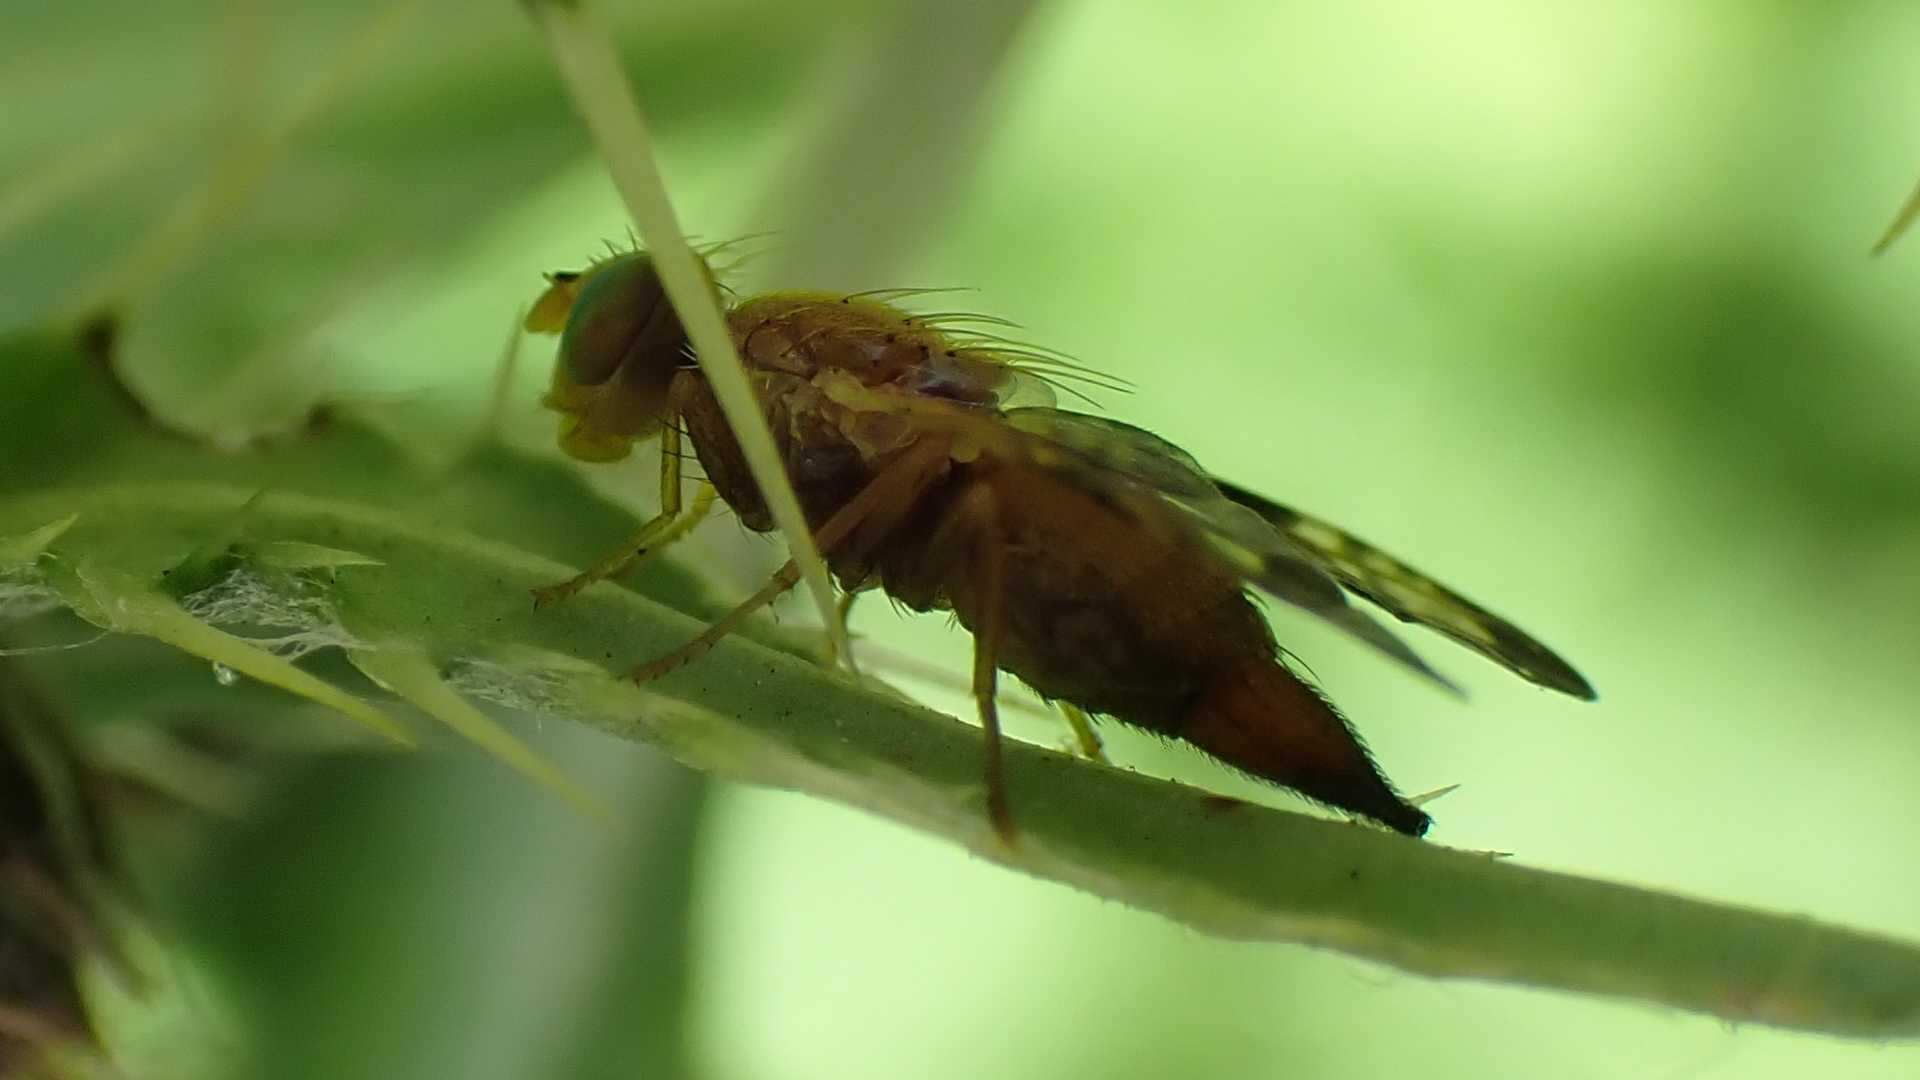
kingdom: Animalia
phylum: Arthropoda
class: Insecta
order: Diptera
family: Tephritidae
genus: Xyphosia
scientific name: Xyphosia miliaria
